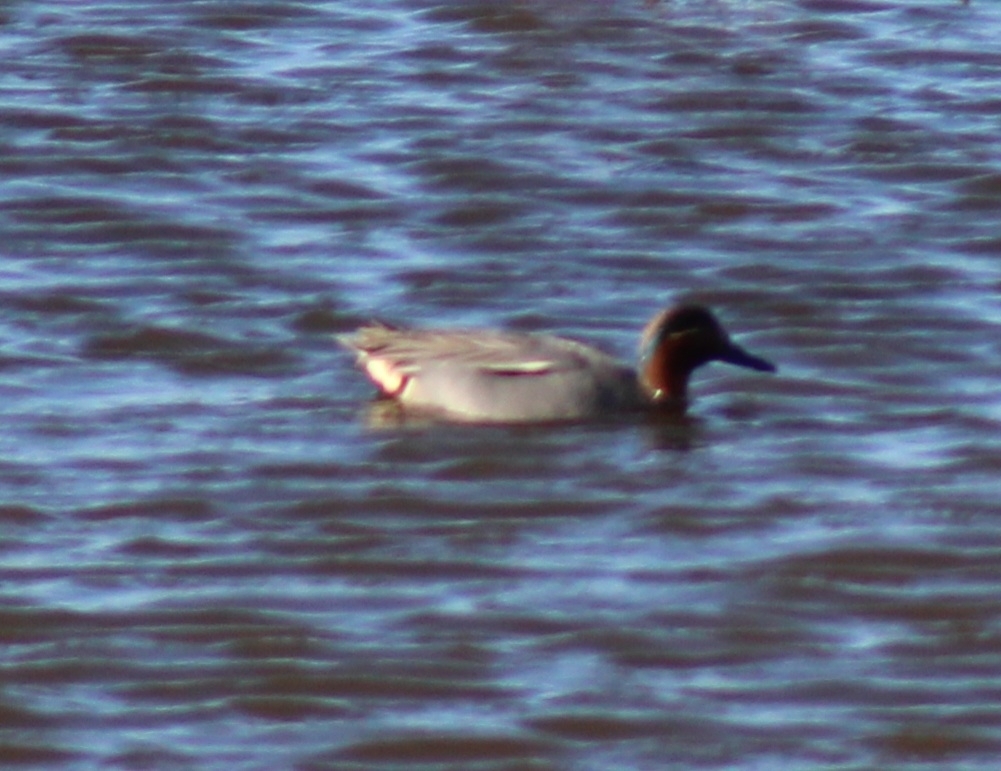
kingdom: Animalia
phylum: Chordata
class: Aves
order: Anseriformes
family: Anatidae
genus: Anas
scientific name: Anas crecca
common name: Eurasian teal
